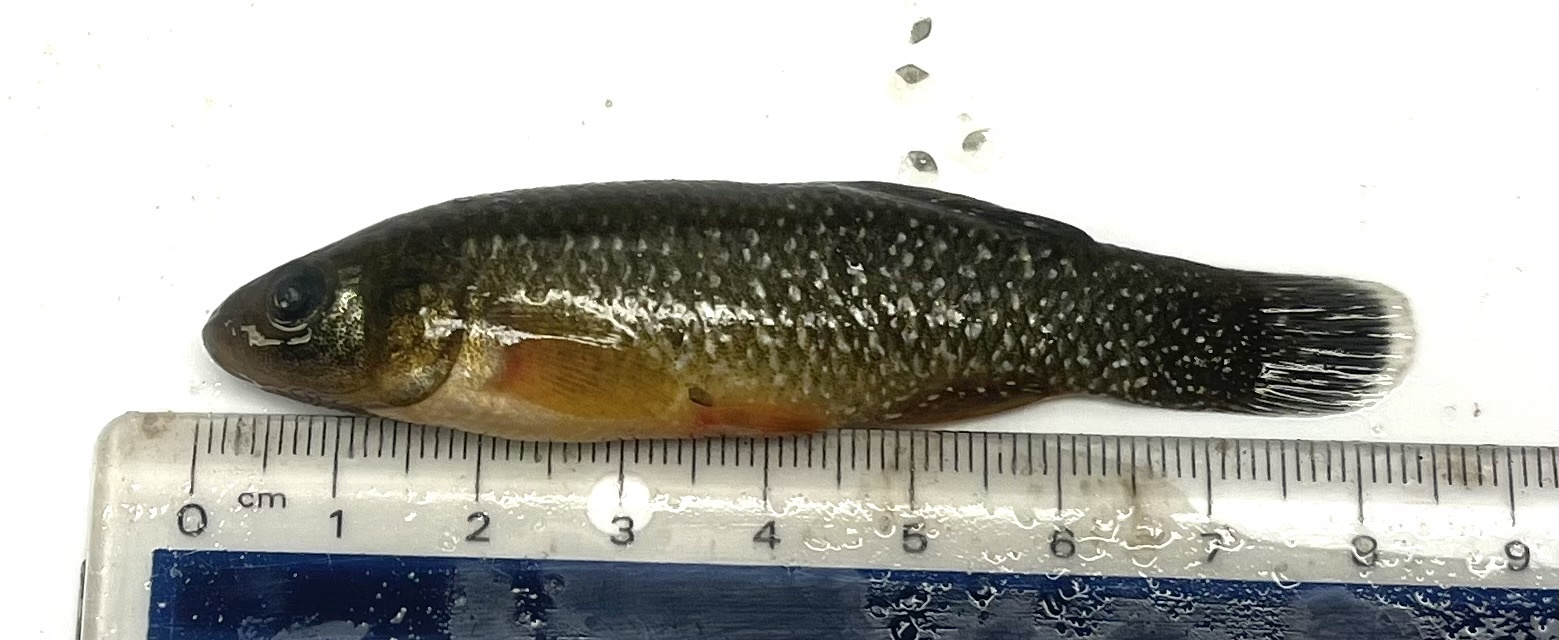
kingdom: Animalia
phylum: Chordata
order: Cyprinodontiformes
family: Fundulidae
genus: Fundulus
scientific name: Fundulus grandis
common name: Gulf killifish
